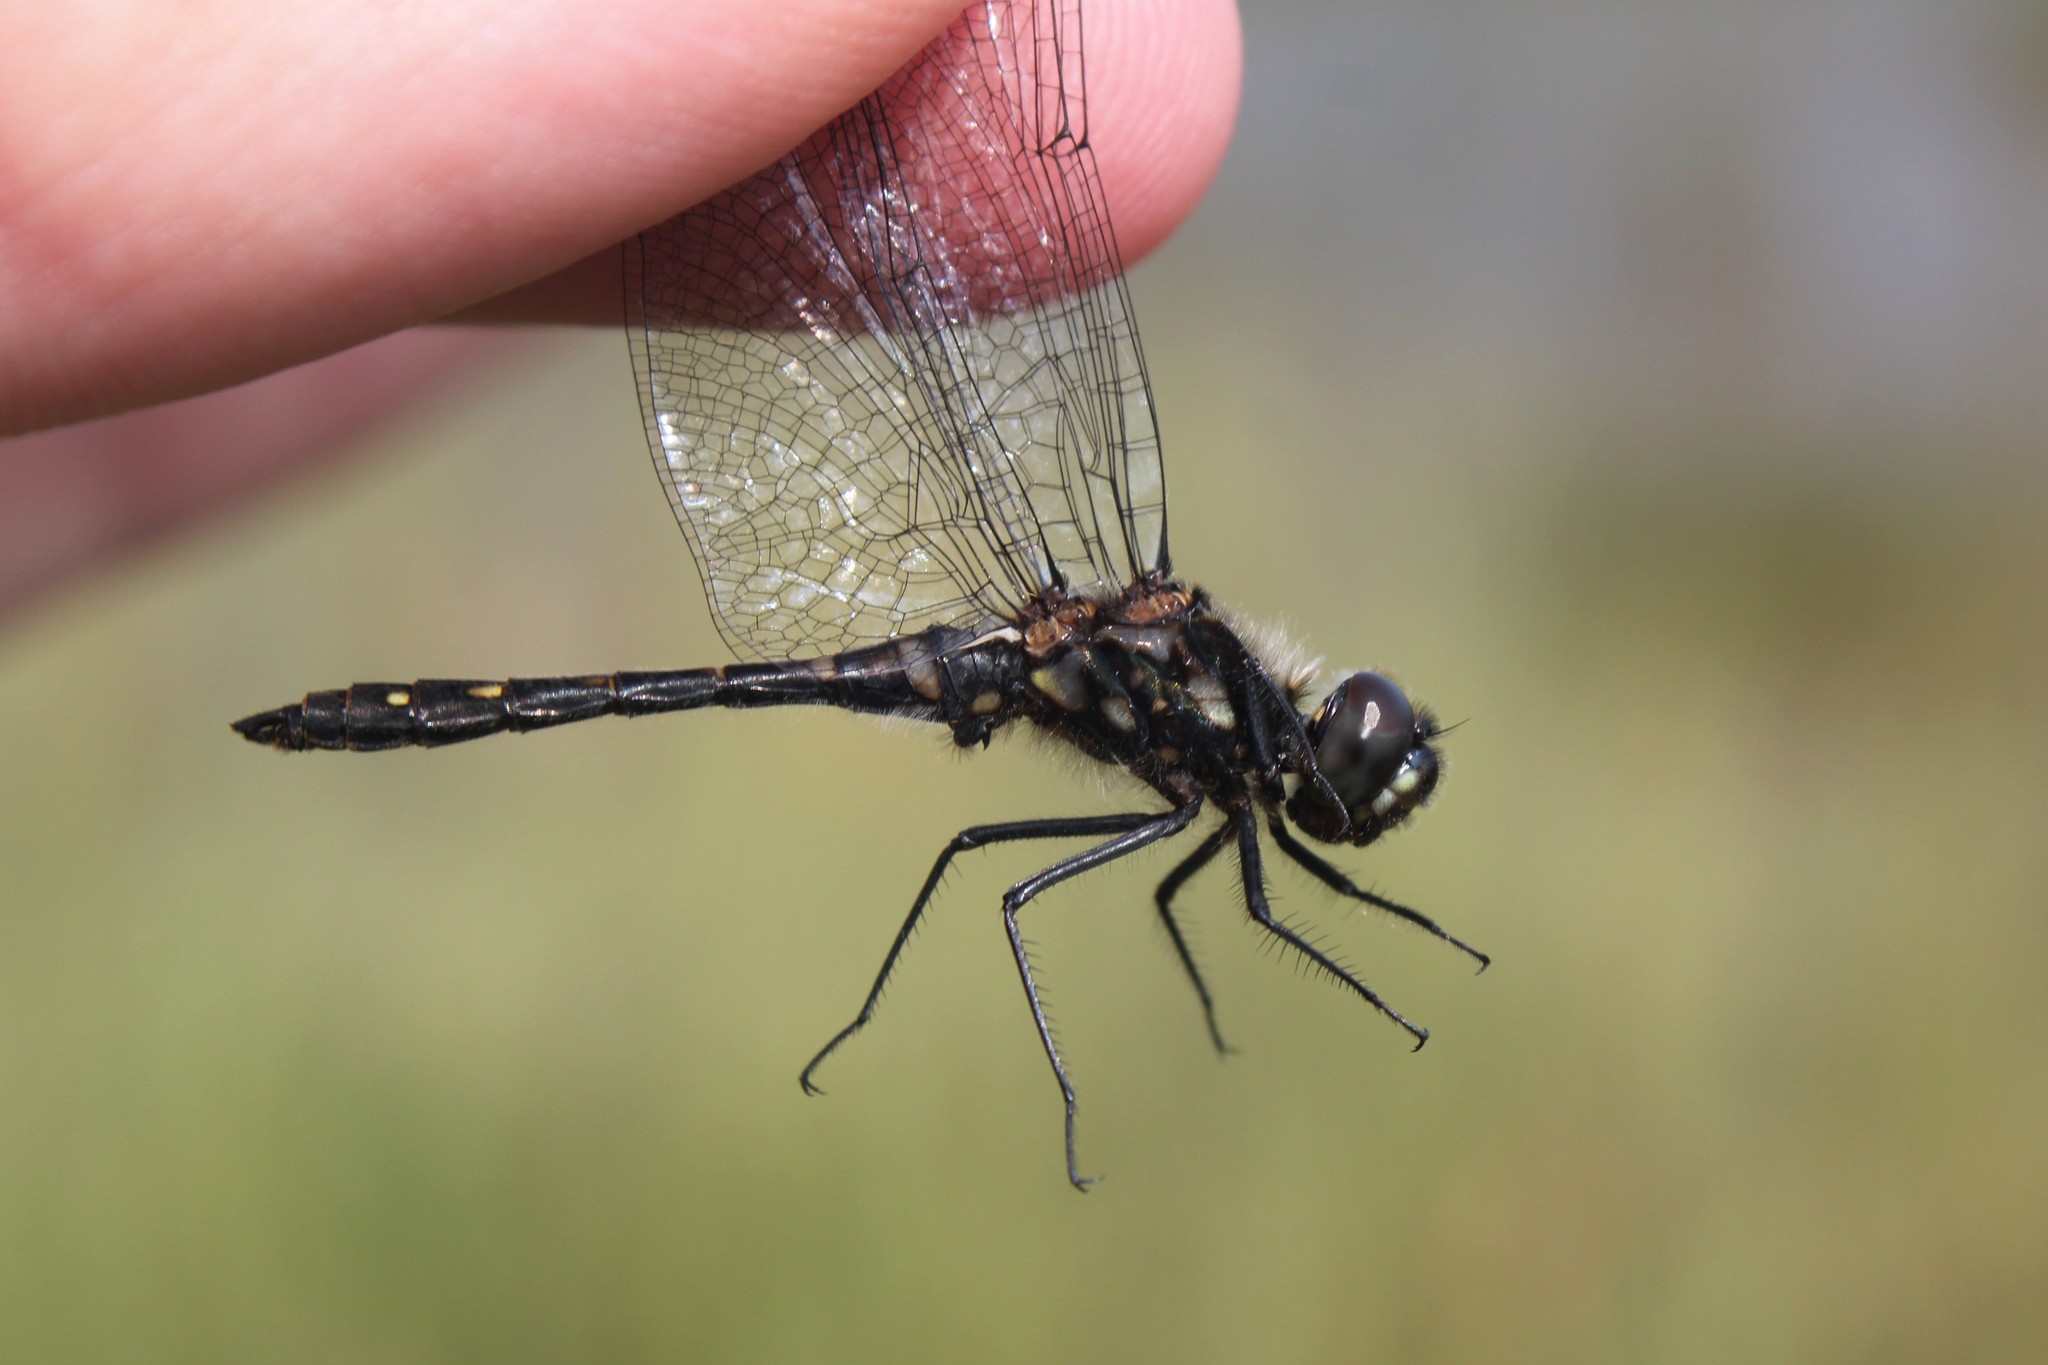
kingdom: Animalia
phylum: Arthropoda
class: Insecta
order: Odonata
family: Libellulidae
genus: Sympetrum
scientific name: Sympetrum danae
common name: Black darter
